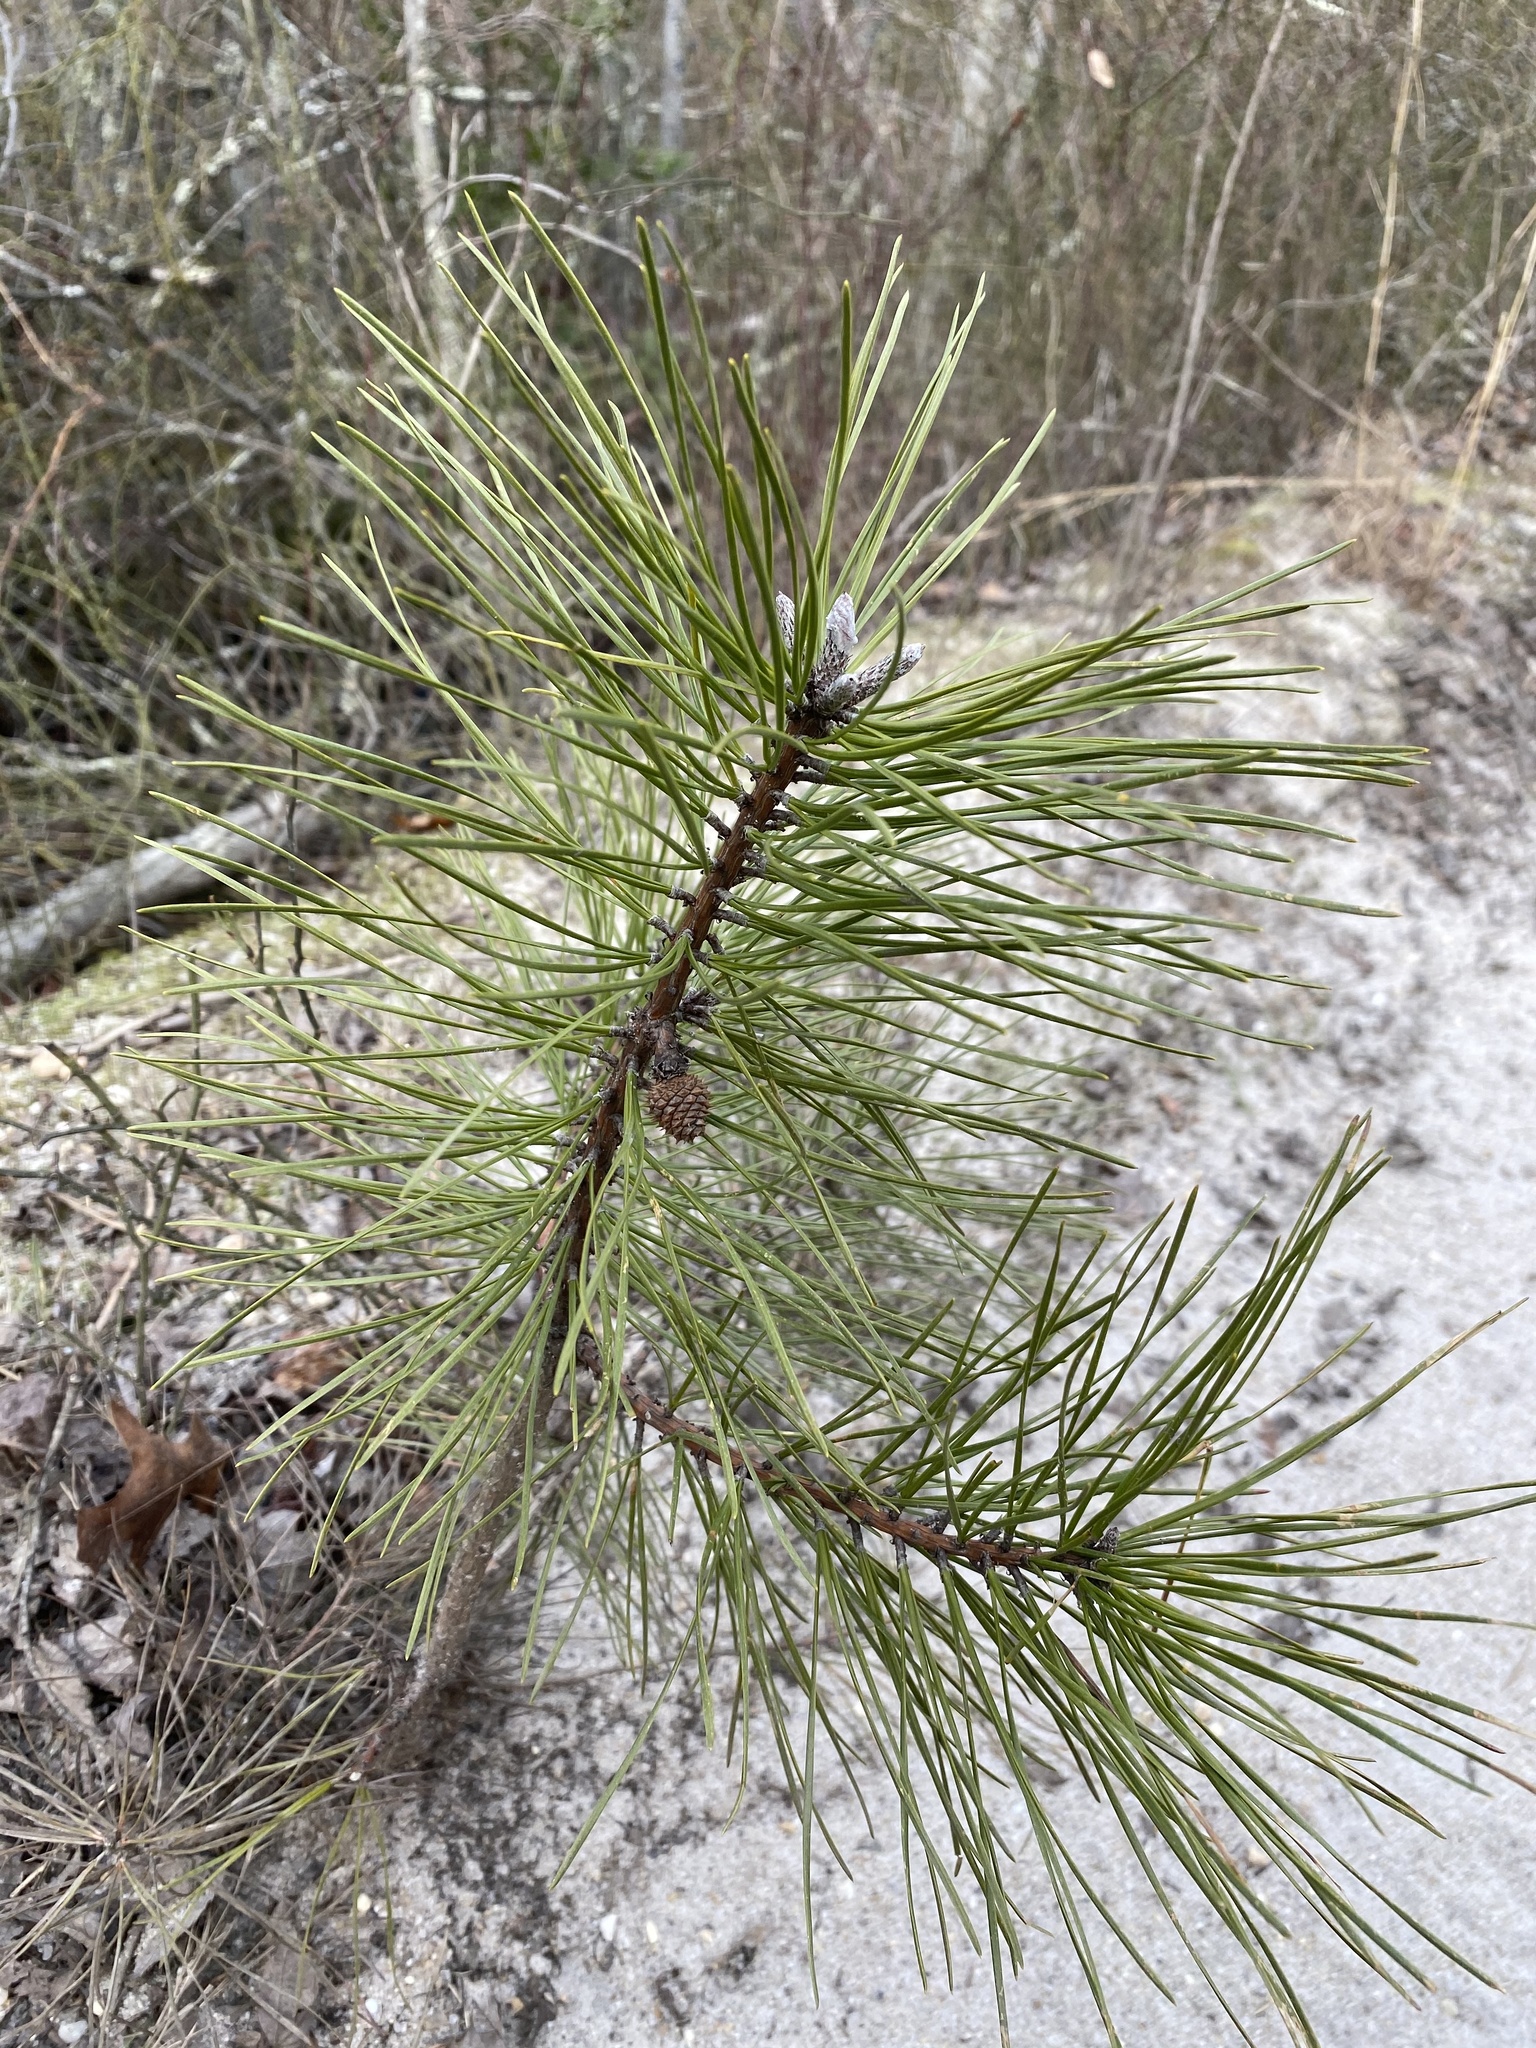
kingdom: Plantae
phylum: Tracheophyta
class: Pinopsida
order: Pinales
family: Pinaceae
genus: Pinus
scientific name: Pinus rigida
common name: Pitch pine
